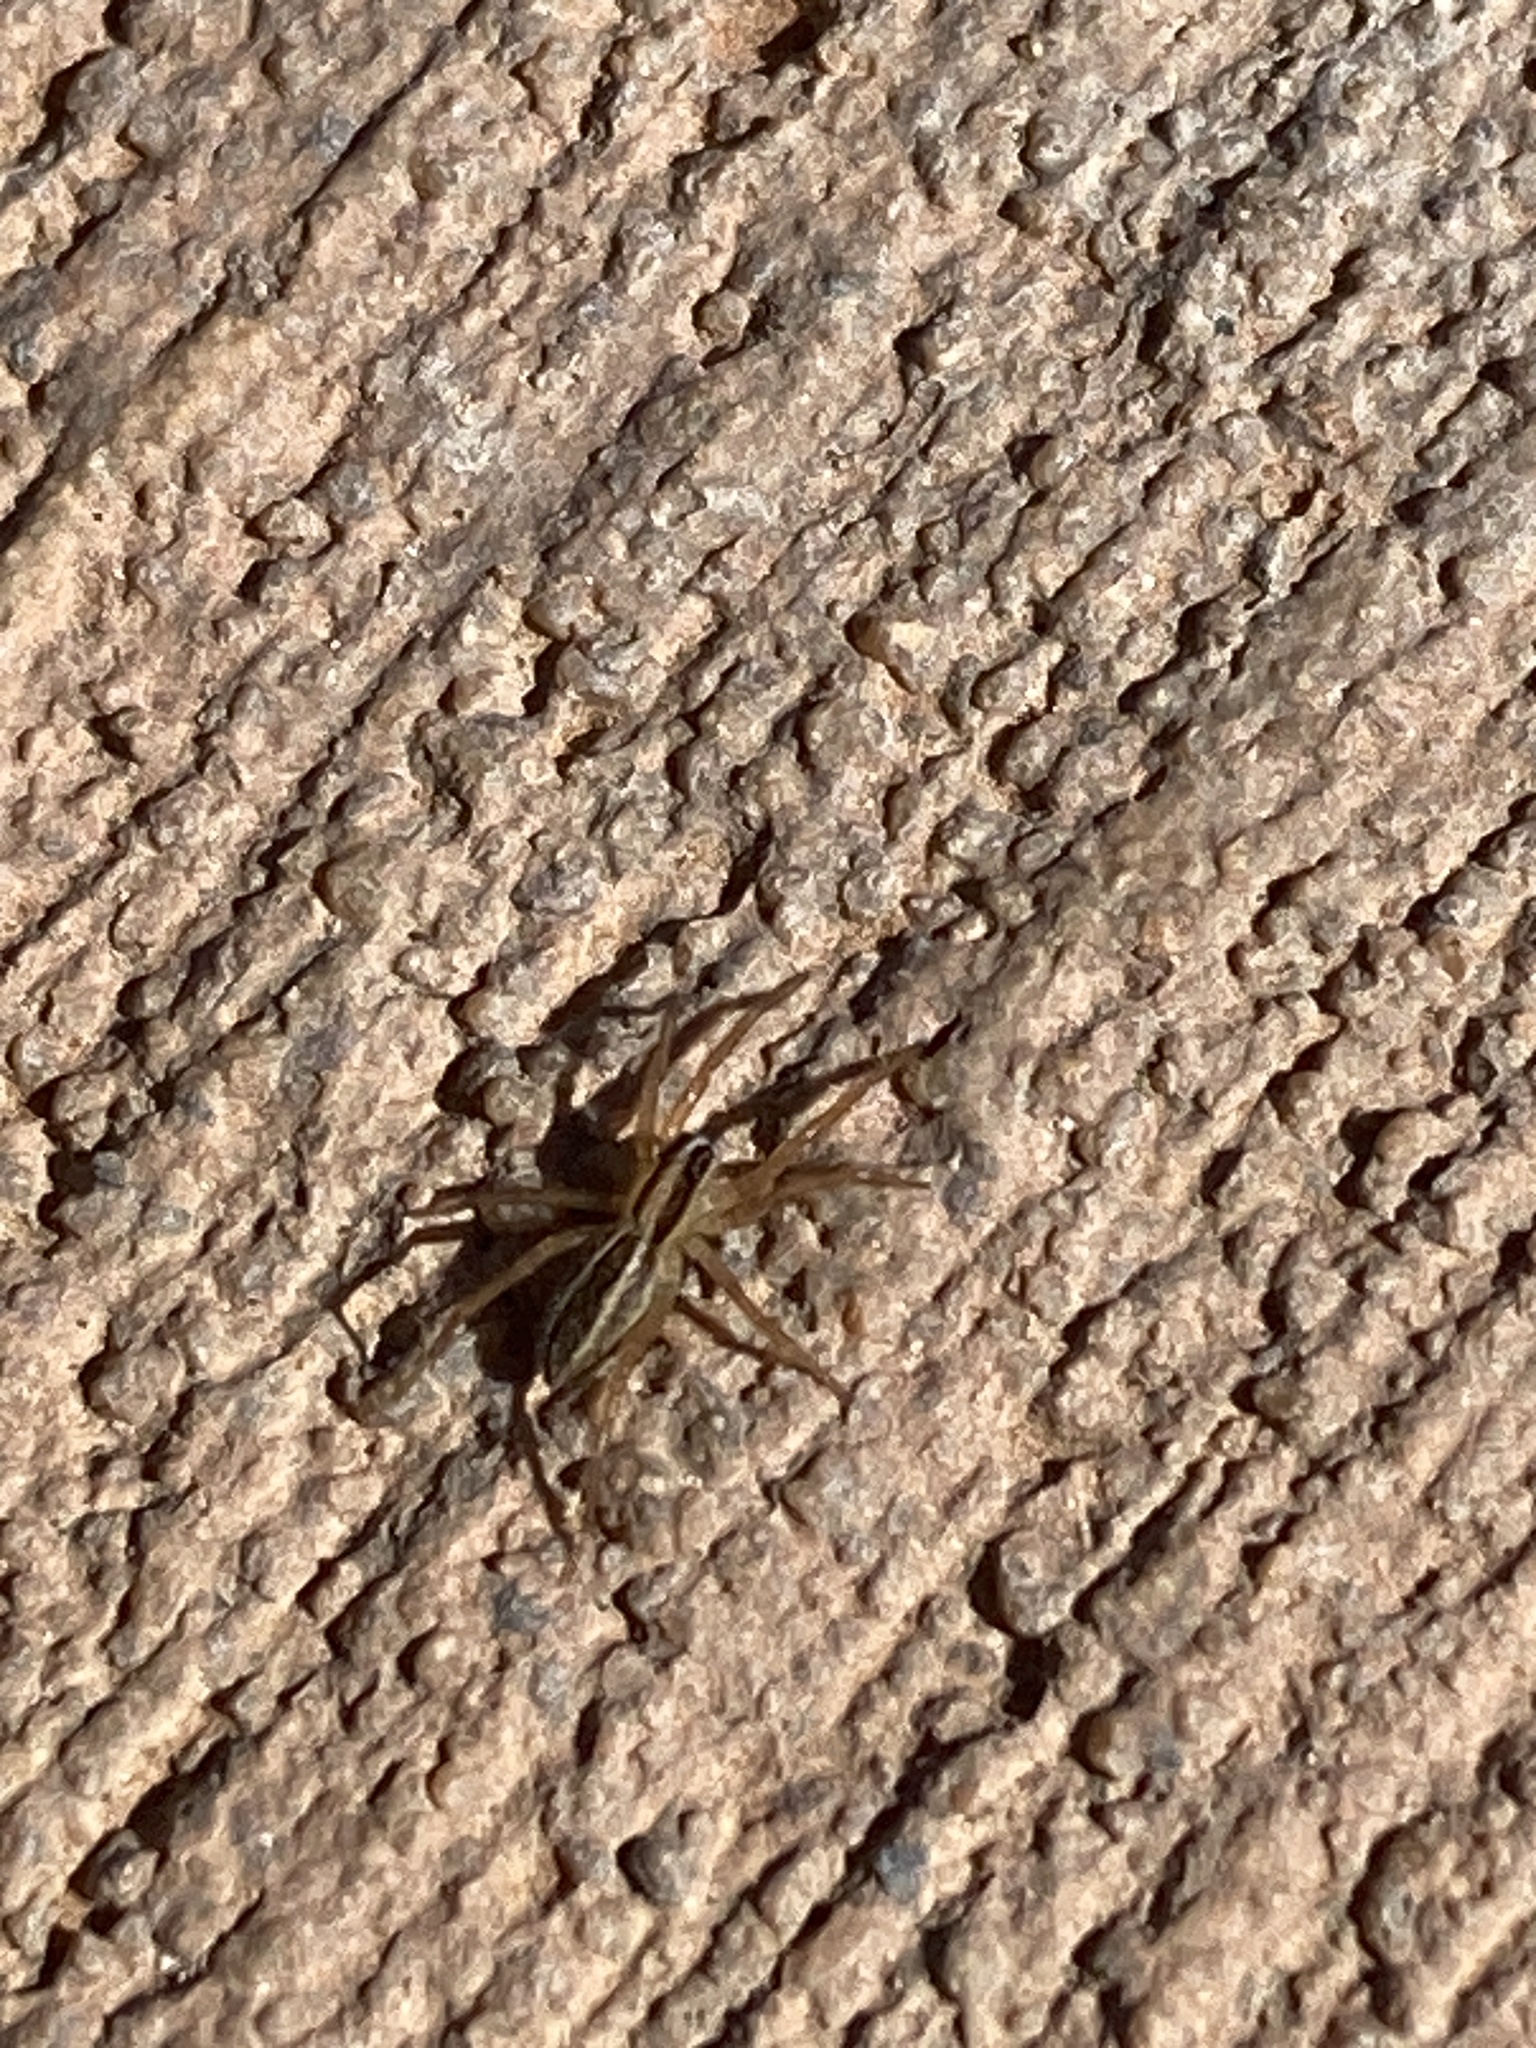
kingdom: Animalia
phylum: Arthropoda
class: Arachnida
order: Araneae
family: Lycosidae
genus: Rabidosa
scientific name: Rabidosa
